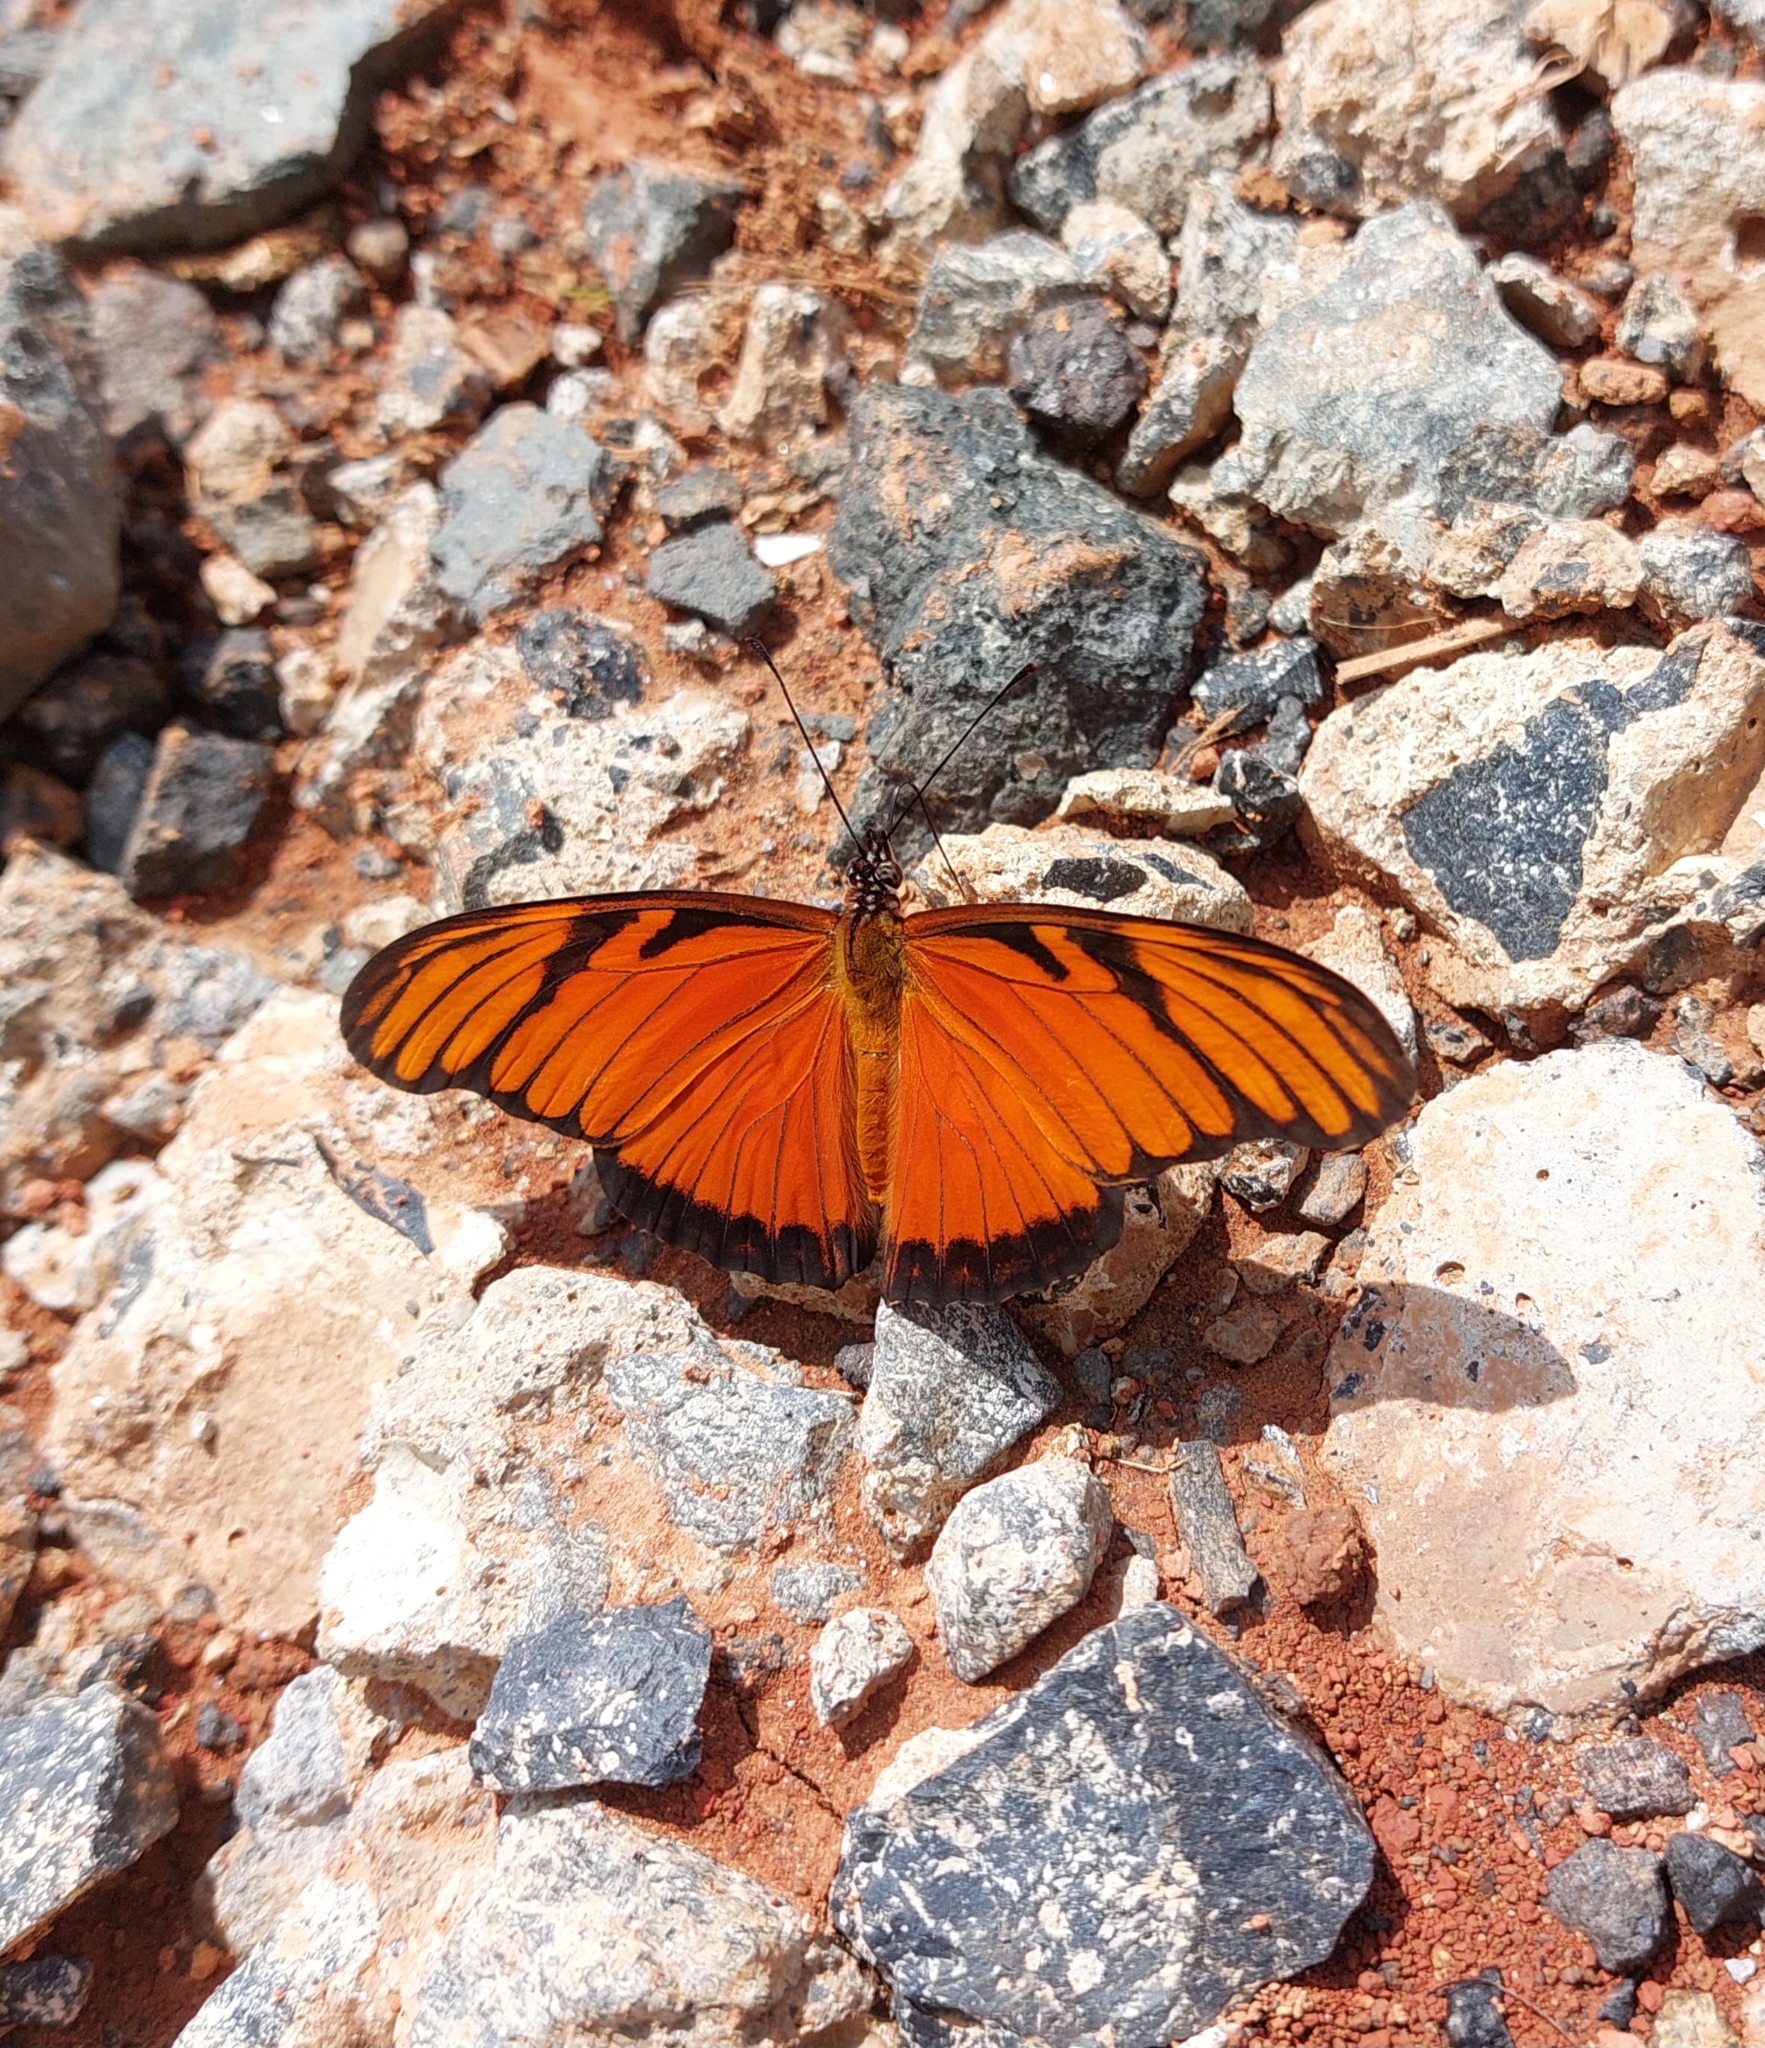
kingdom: Animalia
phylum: Arthropoda
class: Insecta
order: Lepidoptera
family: Nymphalidae
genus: Dione
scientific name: Dione juno
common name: Juno silverspot
